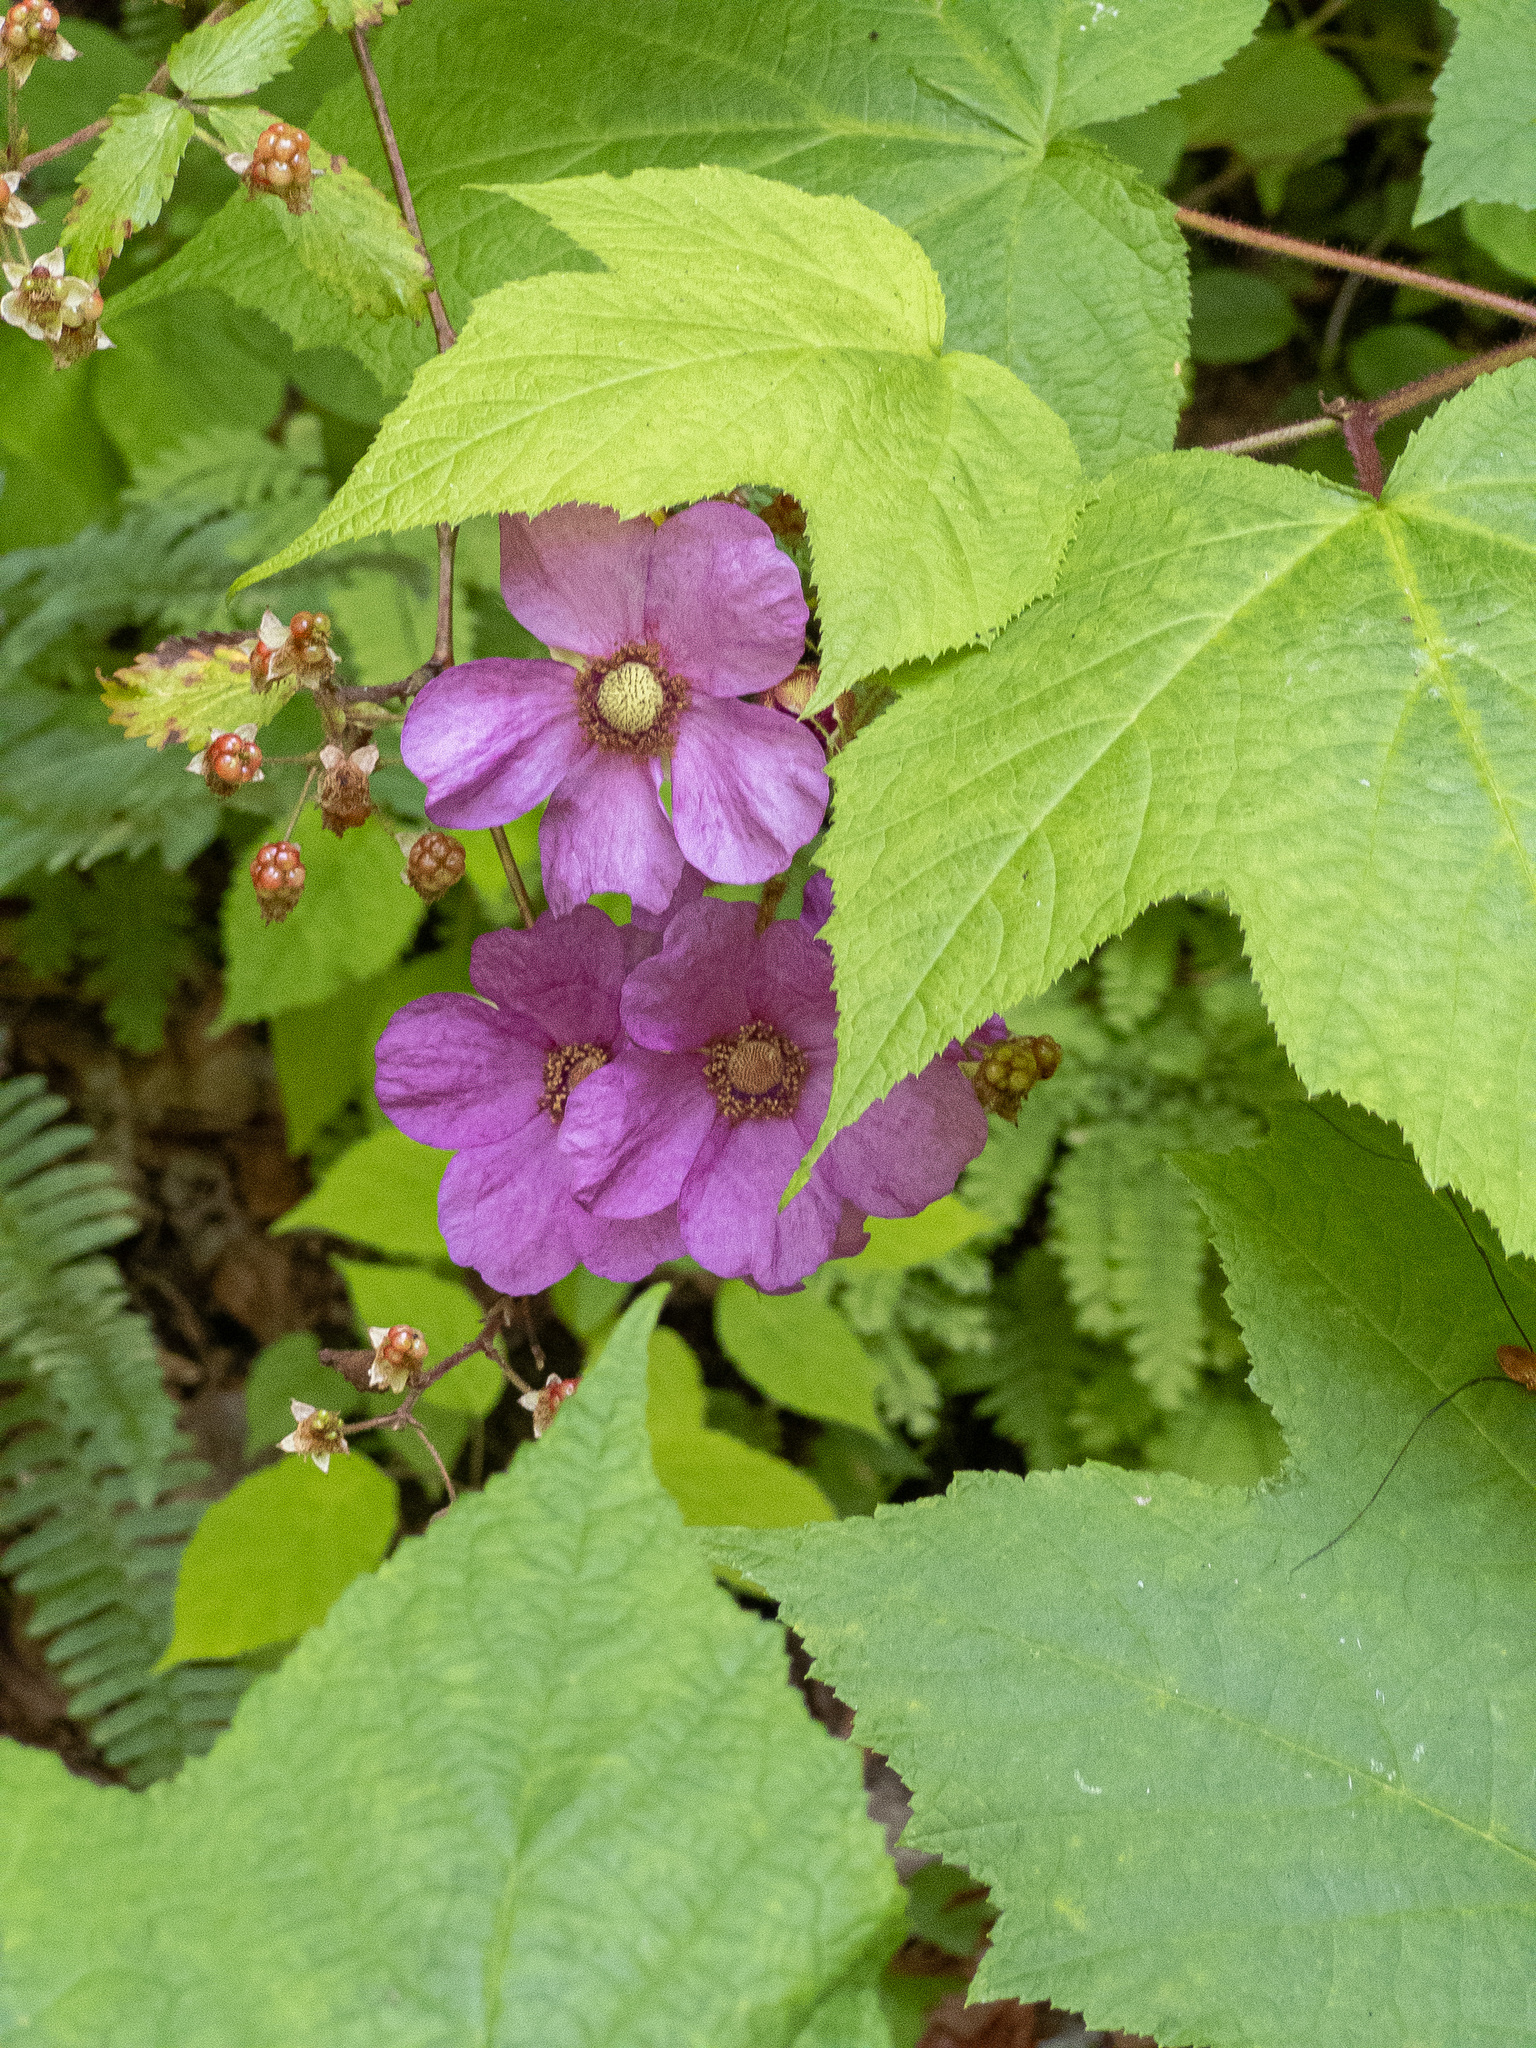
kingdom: Plantae
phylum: Tracheophyta
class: Magnoliopsida
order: Rosales
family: Rosaceae
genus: Rubus
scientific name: Rubus odoratus
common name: Purple-flowered raspberry
